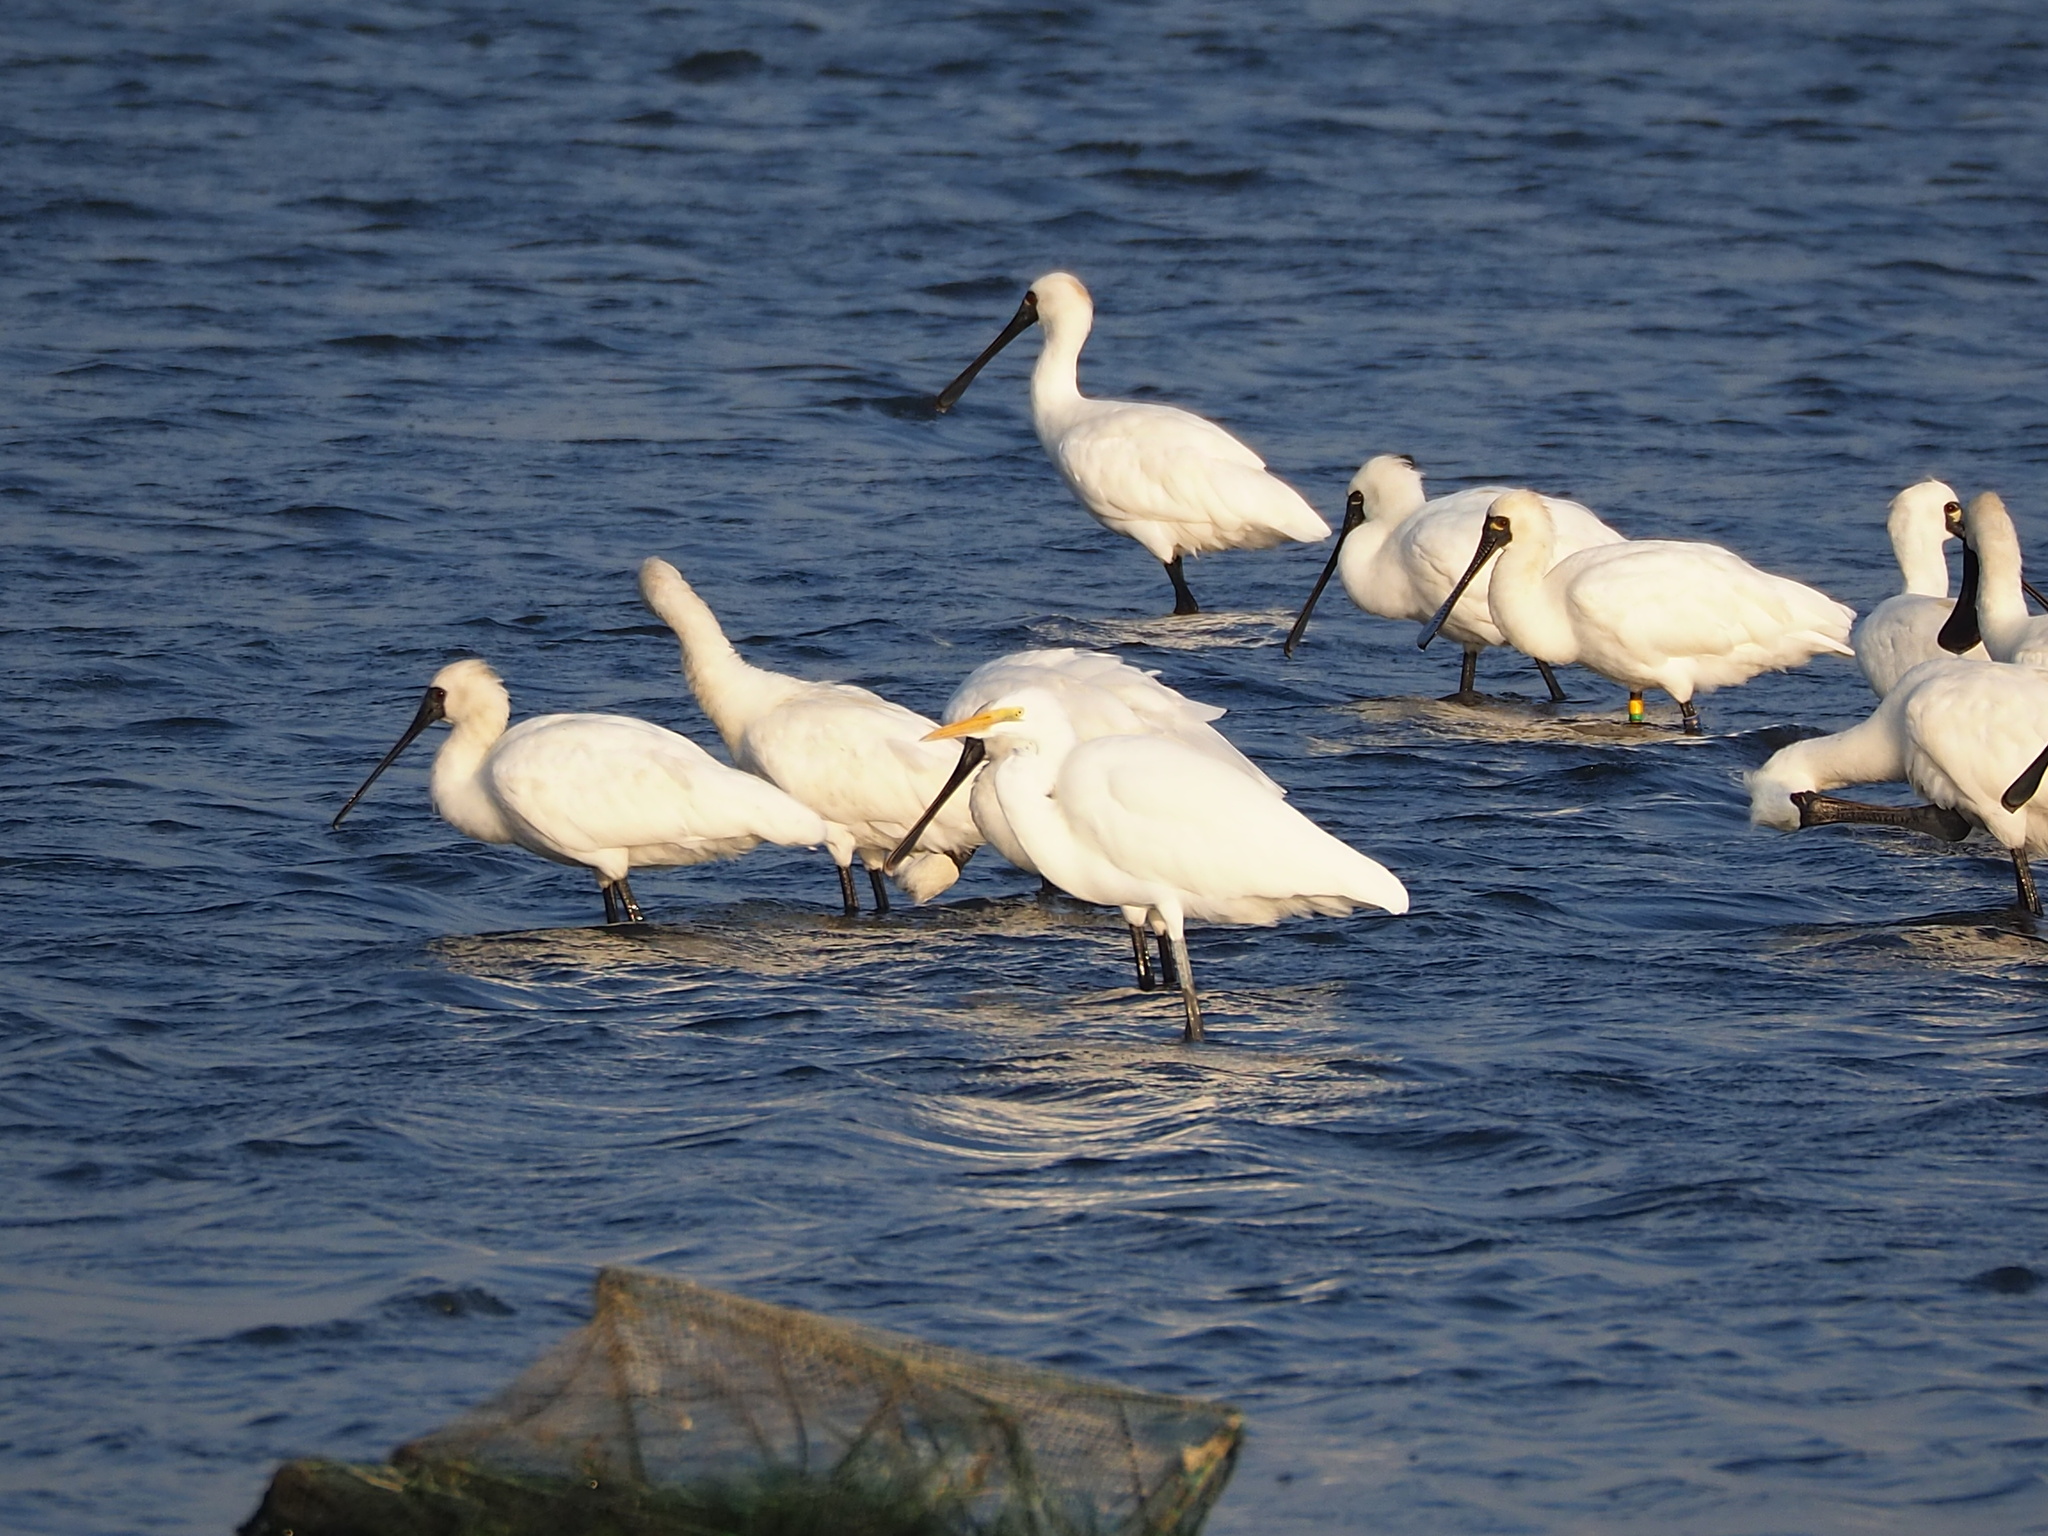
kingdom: Animalia
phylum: Chordata
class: Aves
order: Pelecaniformes
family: Threskiornithidae
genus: Platalea
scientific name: Platalea minor
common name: Black-faced spoonbill
